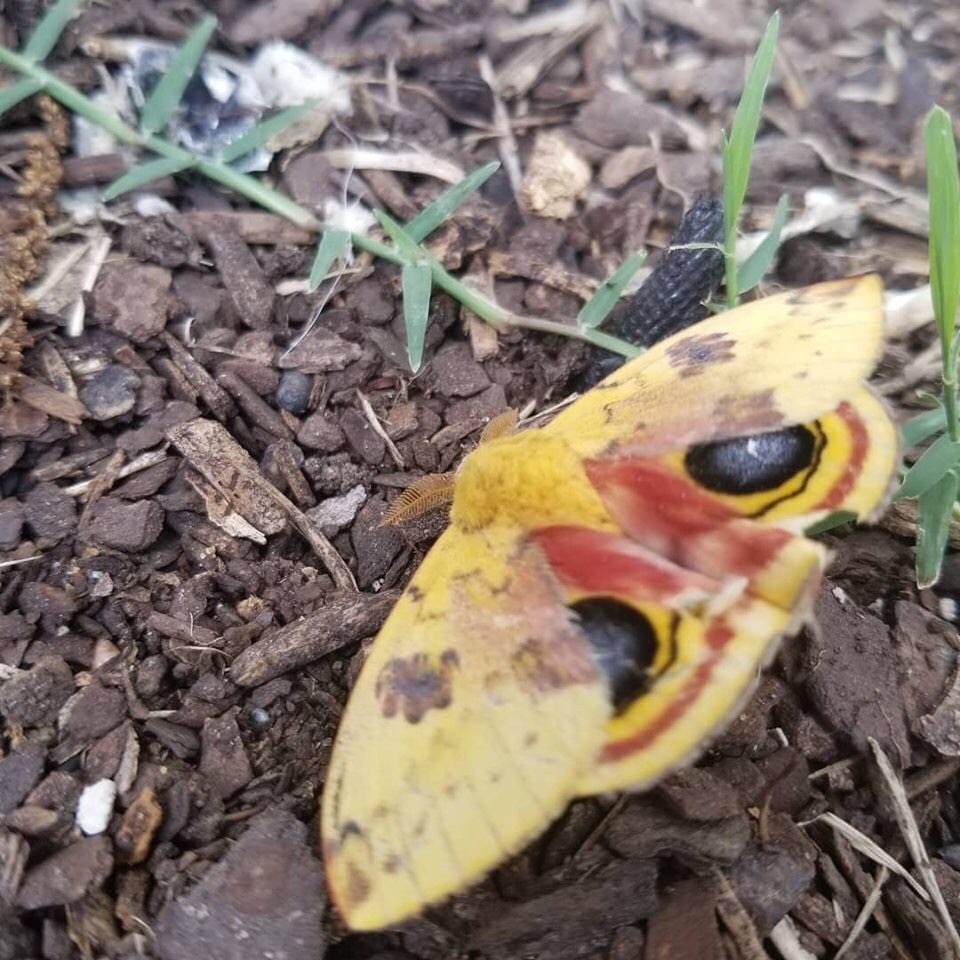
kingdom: Animalia
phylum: Arthropoda
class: Insecta
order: Lepidoptera
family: Saturniidae
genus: Automeris
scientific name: Automeris io
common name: Io moth
